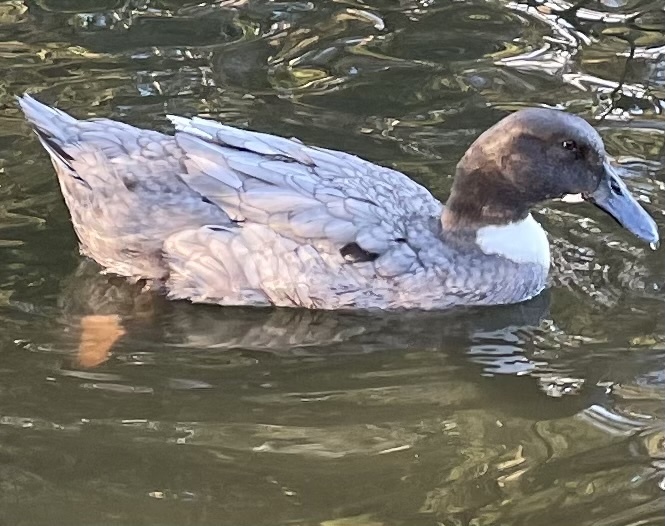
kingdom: Animalia
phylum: Chordata
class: Aves
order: Anseriformes
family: Anatidae
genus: Anas
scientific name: Anas platyrhynchos
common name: Mallard
